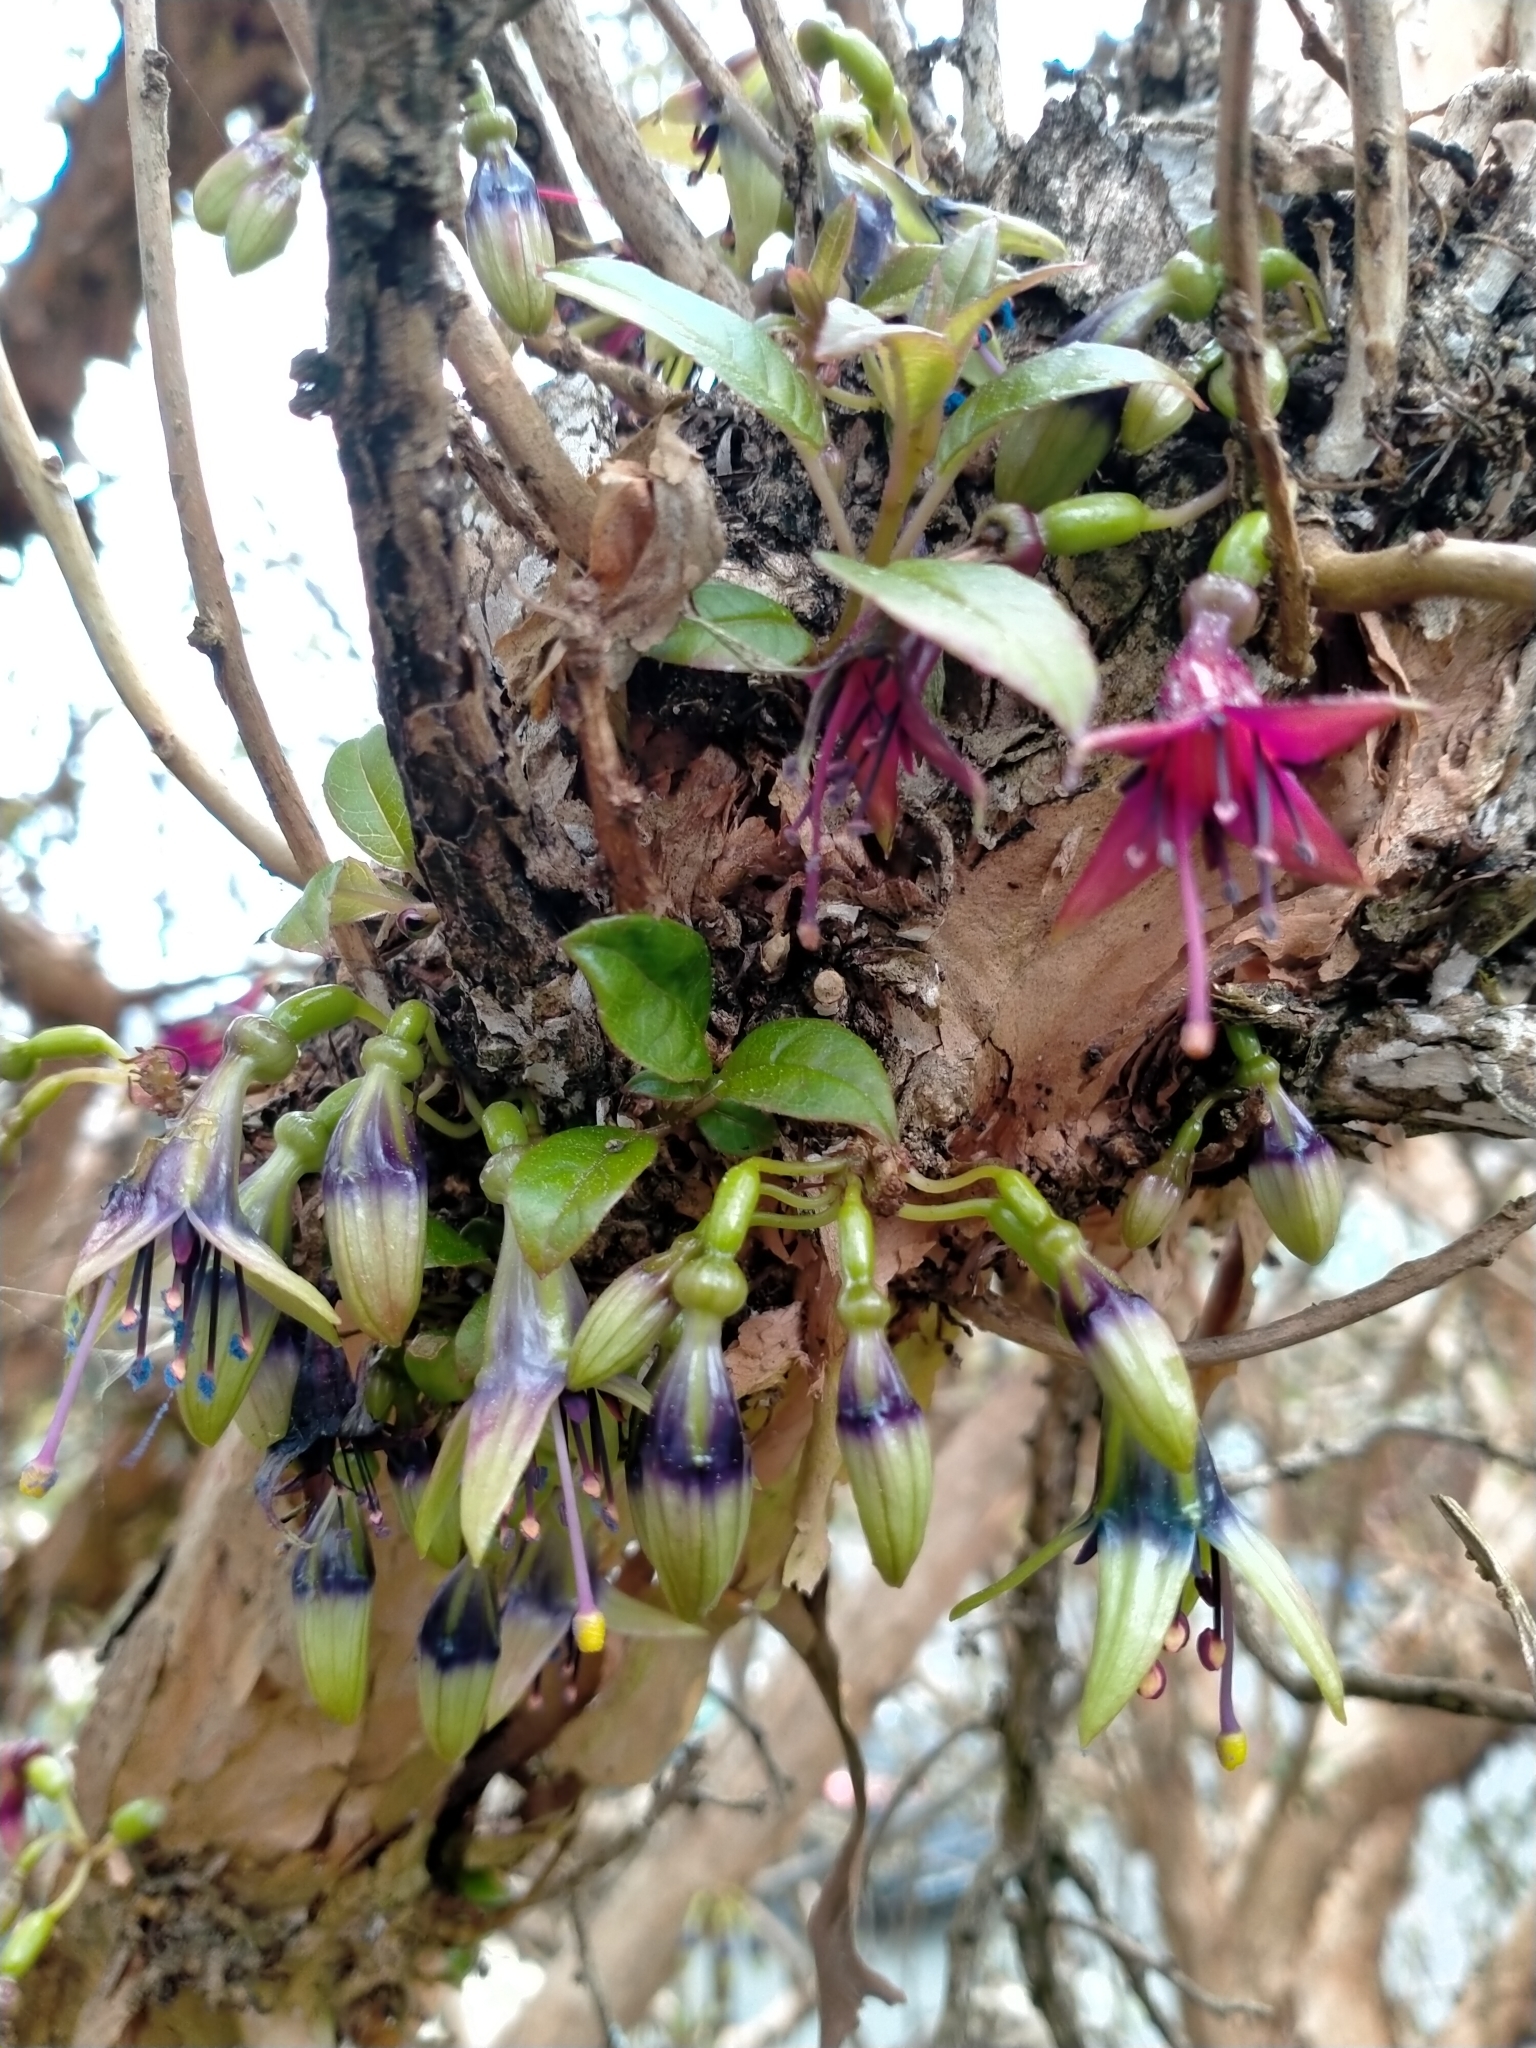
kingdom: Plantae
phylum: Tracheophyta
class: Magnoliopsida
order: Myrtales
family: Onagraceae
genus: Fuchsia
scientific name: Fuchsia excorticata
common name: Tree fuchsia
